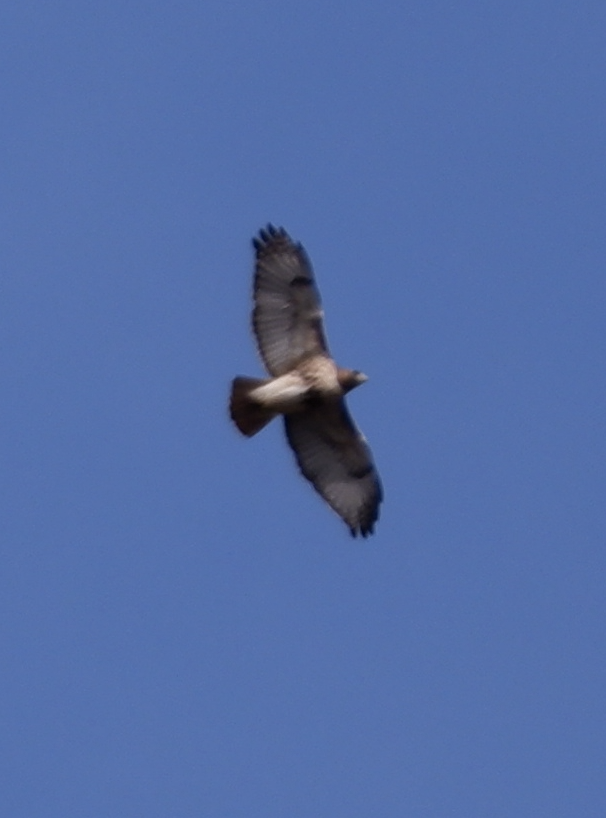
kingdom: Animalia
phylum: Chordata
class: Aves
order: Accipitriformes
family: Accipitridae
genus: Buteo
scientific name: Buteo jamaicensis
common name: Red-tailed hawk
